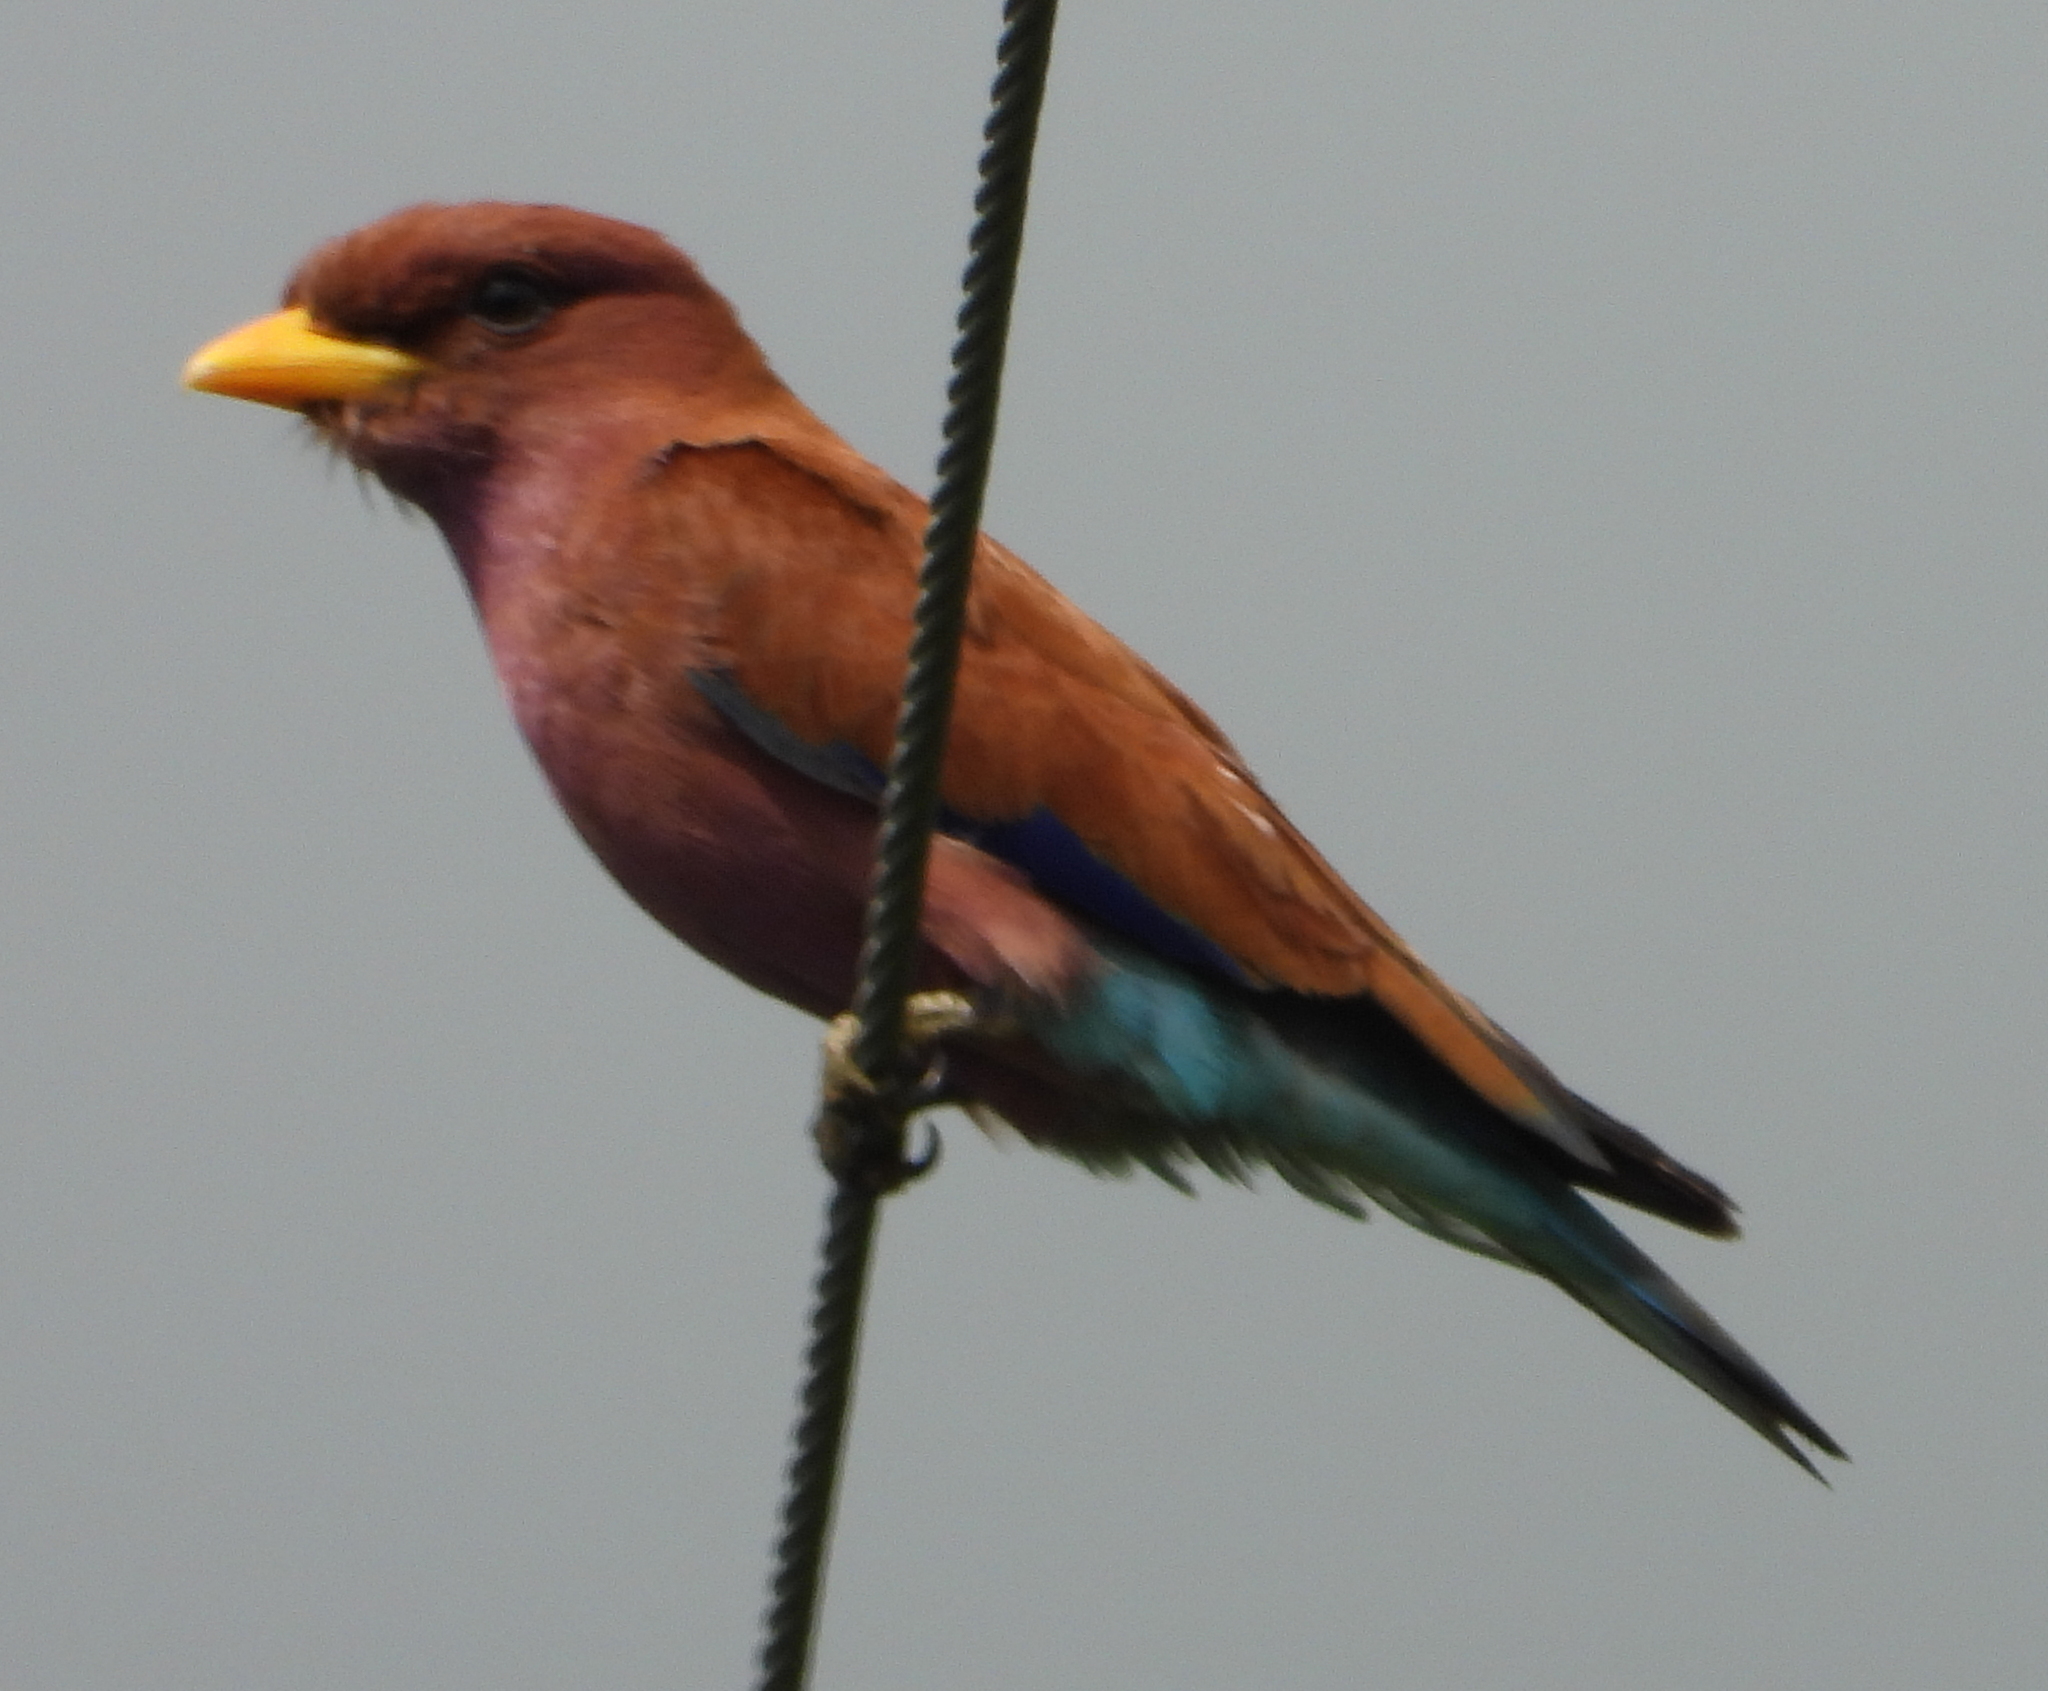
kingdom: Animalia
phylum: Chordata
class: Aves
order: Coraciiformes
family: Coraciidae
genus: Eurystomus
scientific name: Eurystomus glaucurus
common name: Broad-billed roller
